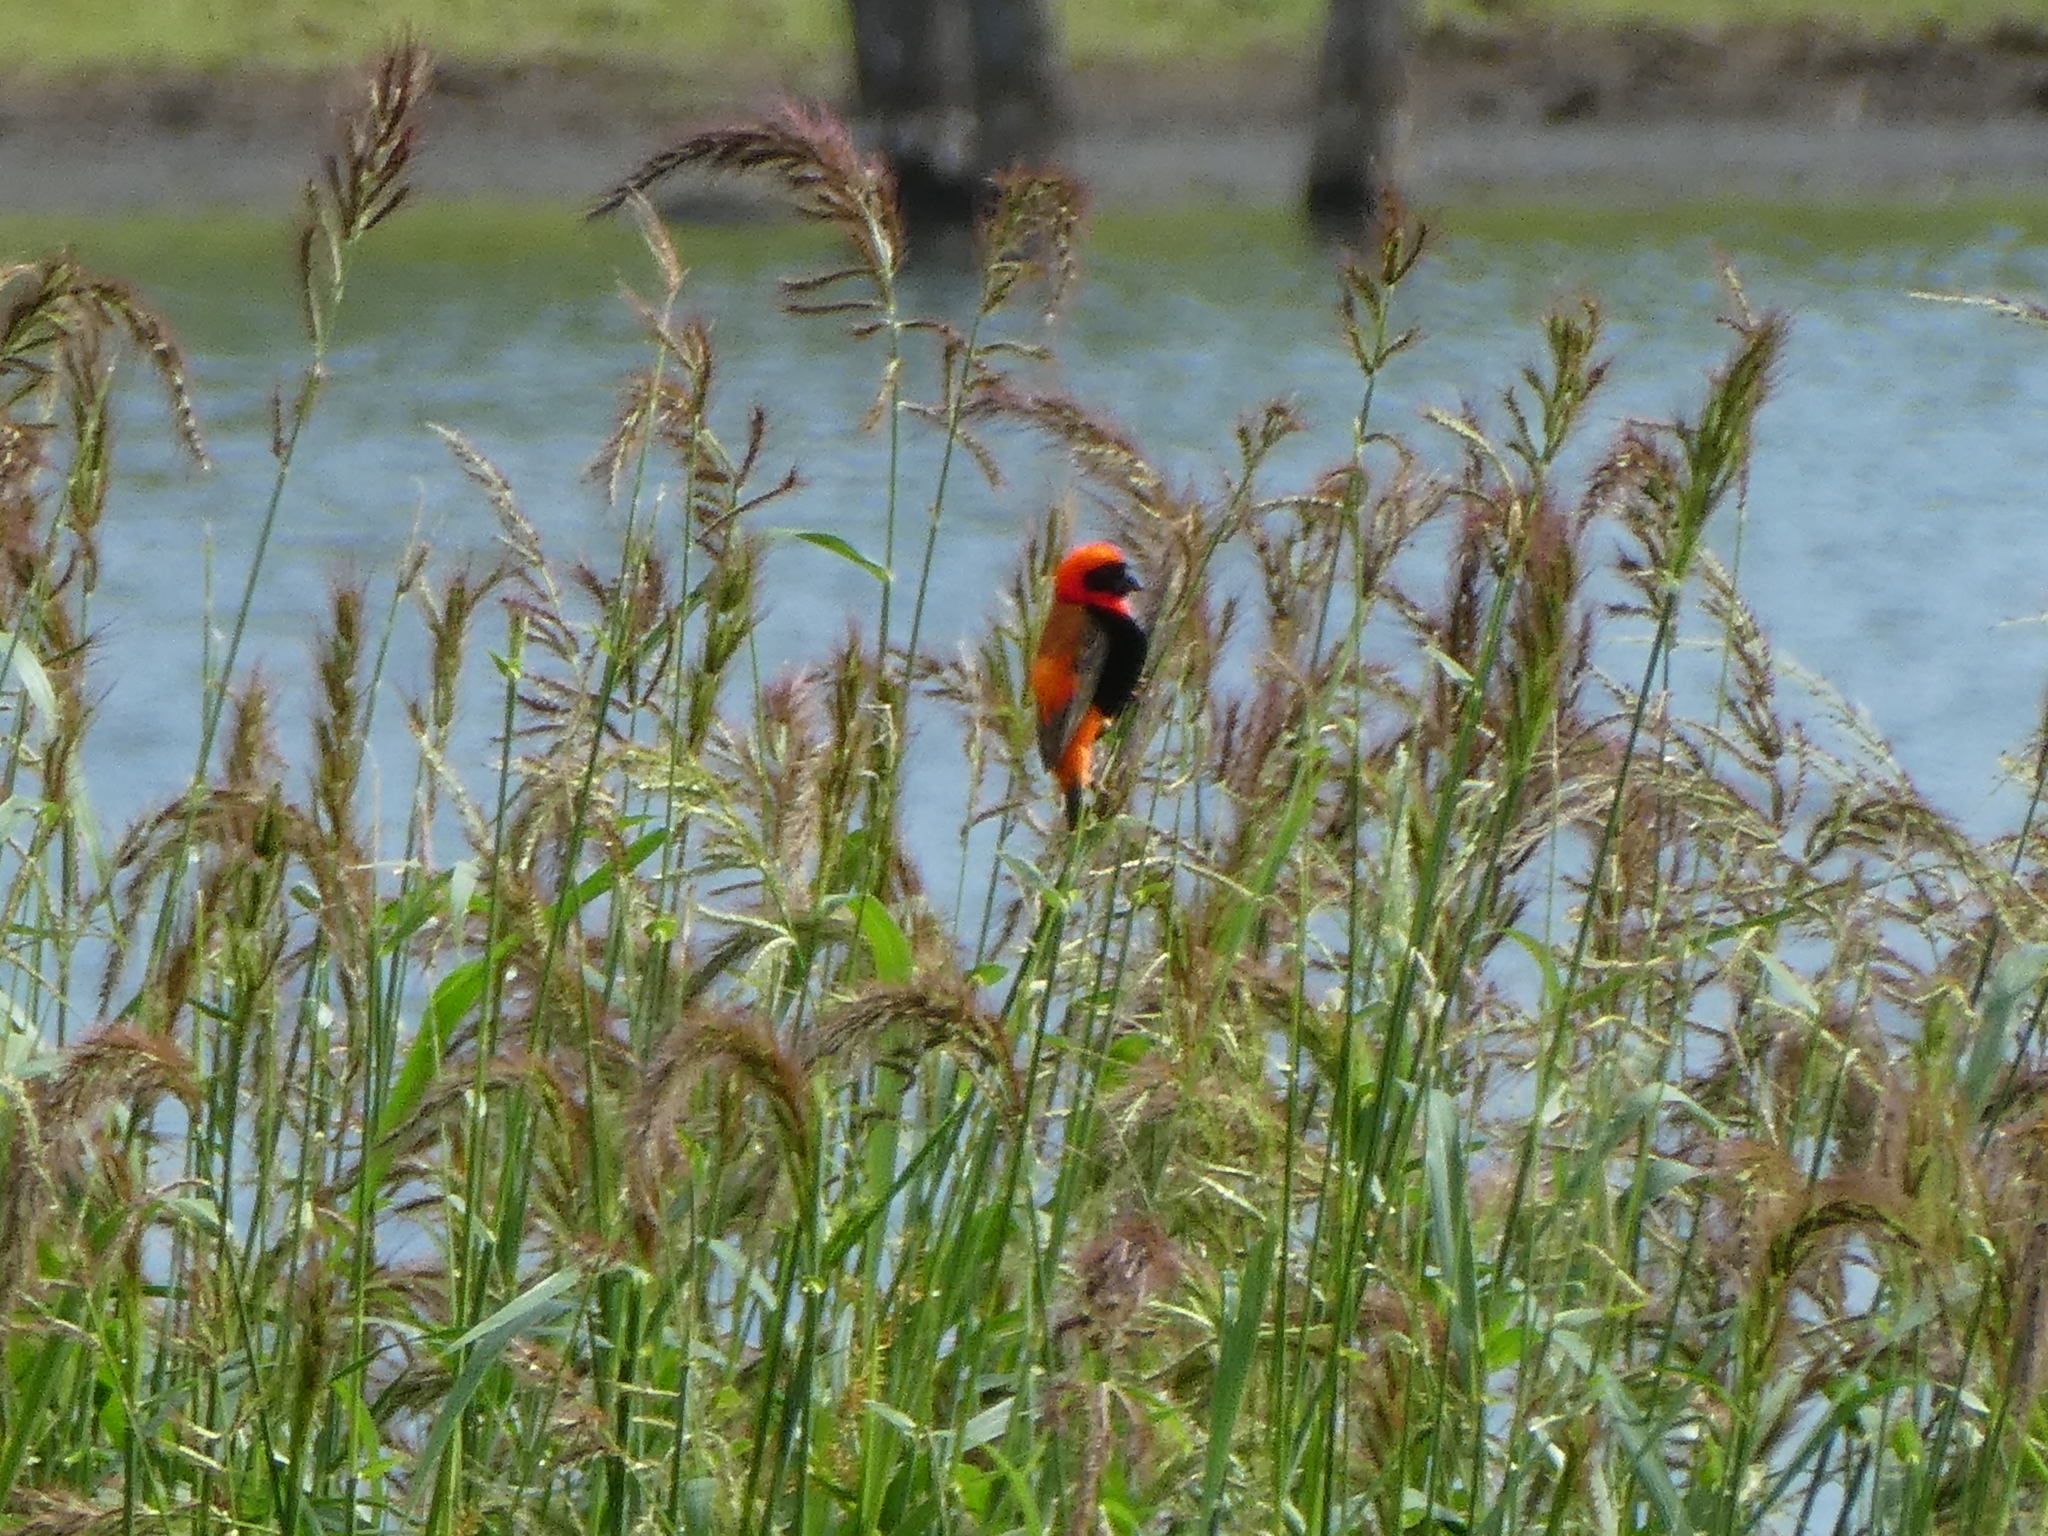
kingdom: Animalia
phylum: Chordata
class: Aves
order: Passeriformes
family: Ploceidae
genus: Euplectes
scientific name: Euplectes orix
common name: Southern red bishop
